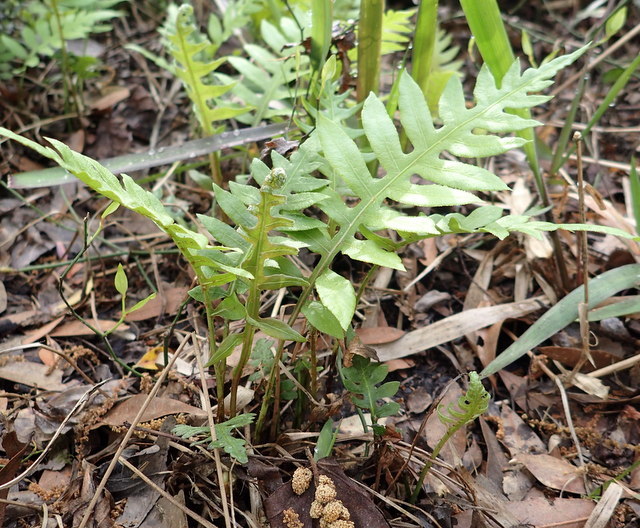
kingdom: Plantae
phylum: Tracheophyta
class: Polypodiopsida
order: Polypodiales
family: Blechnaceae
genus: Lorinseria
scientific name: Lorinseria areolata
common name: Dwarf chain fern
